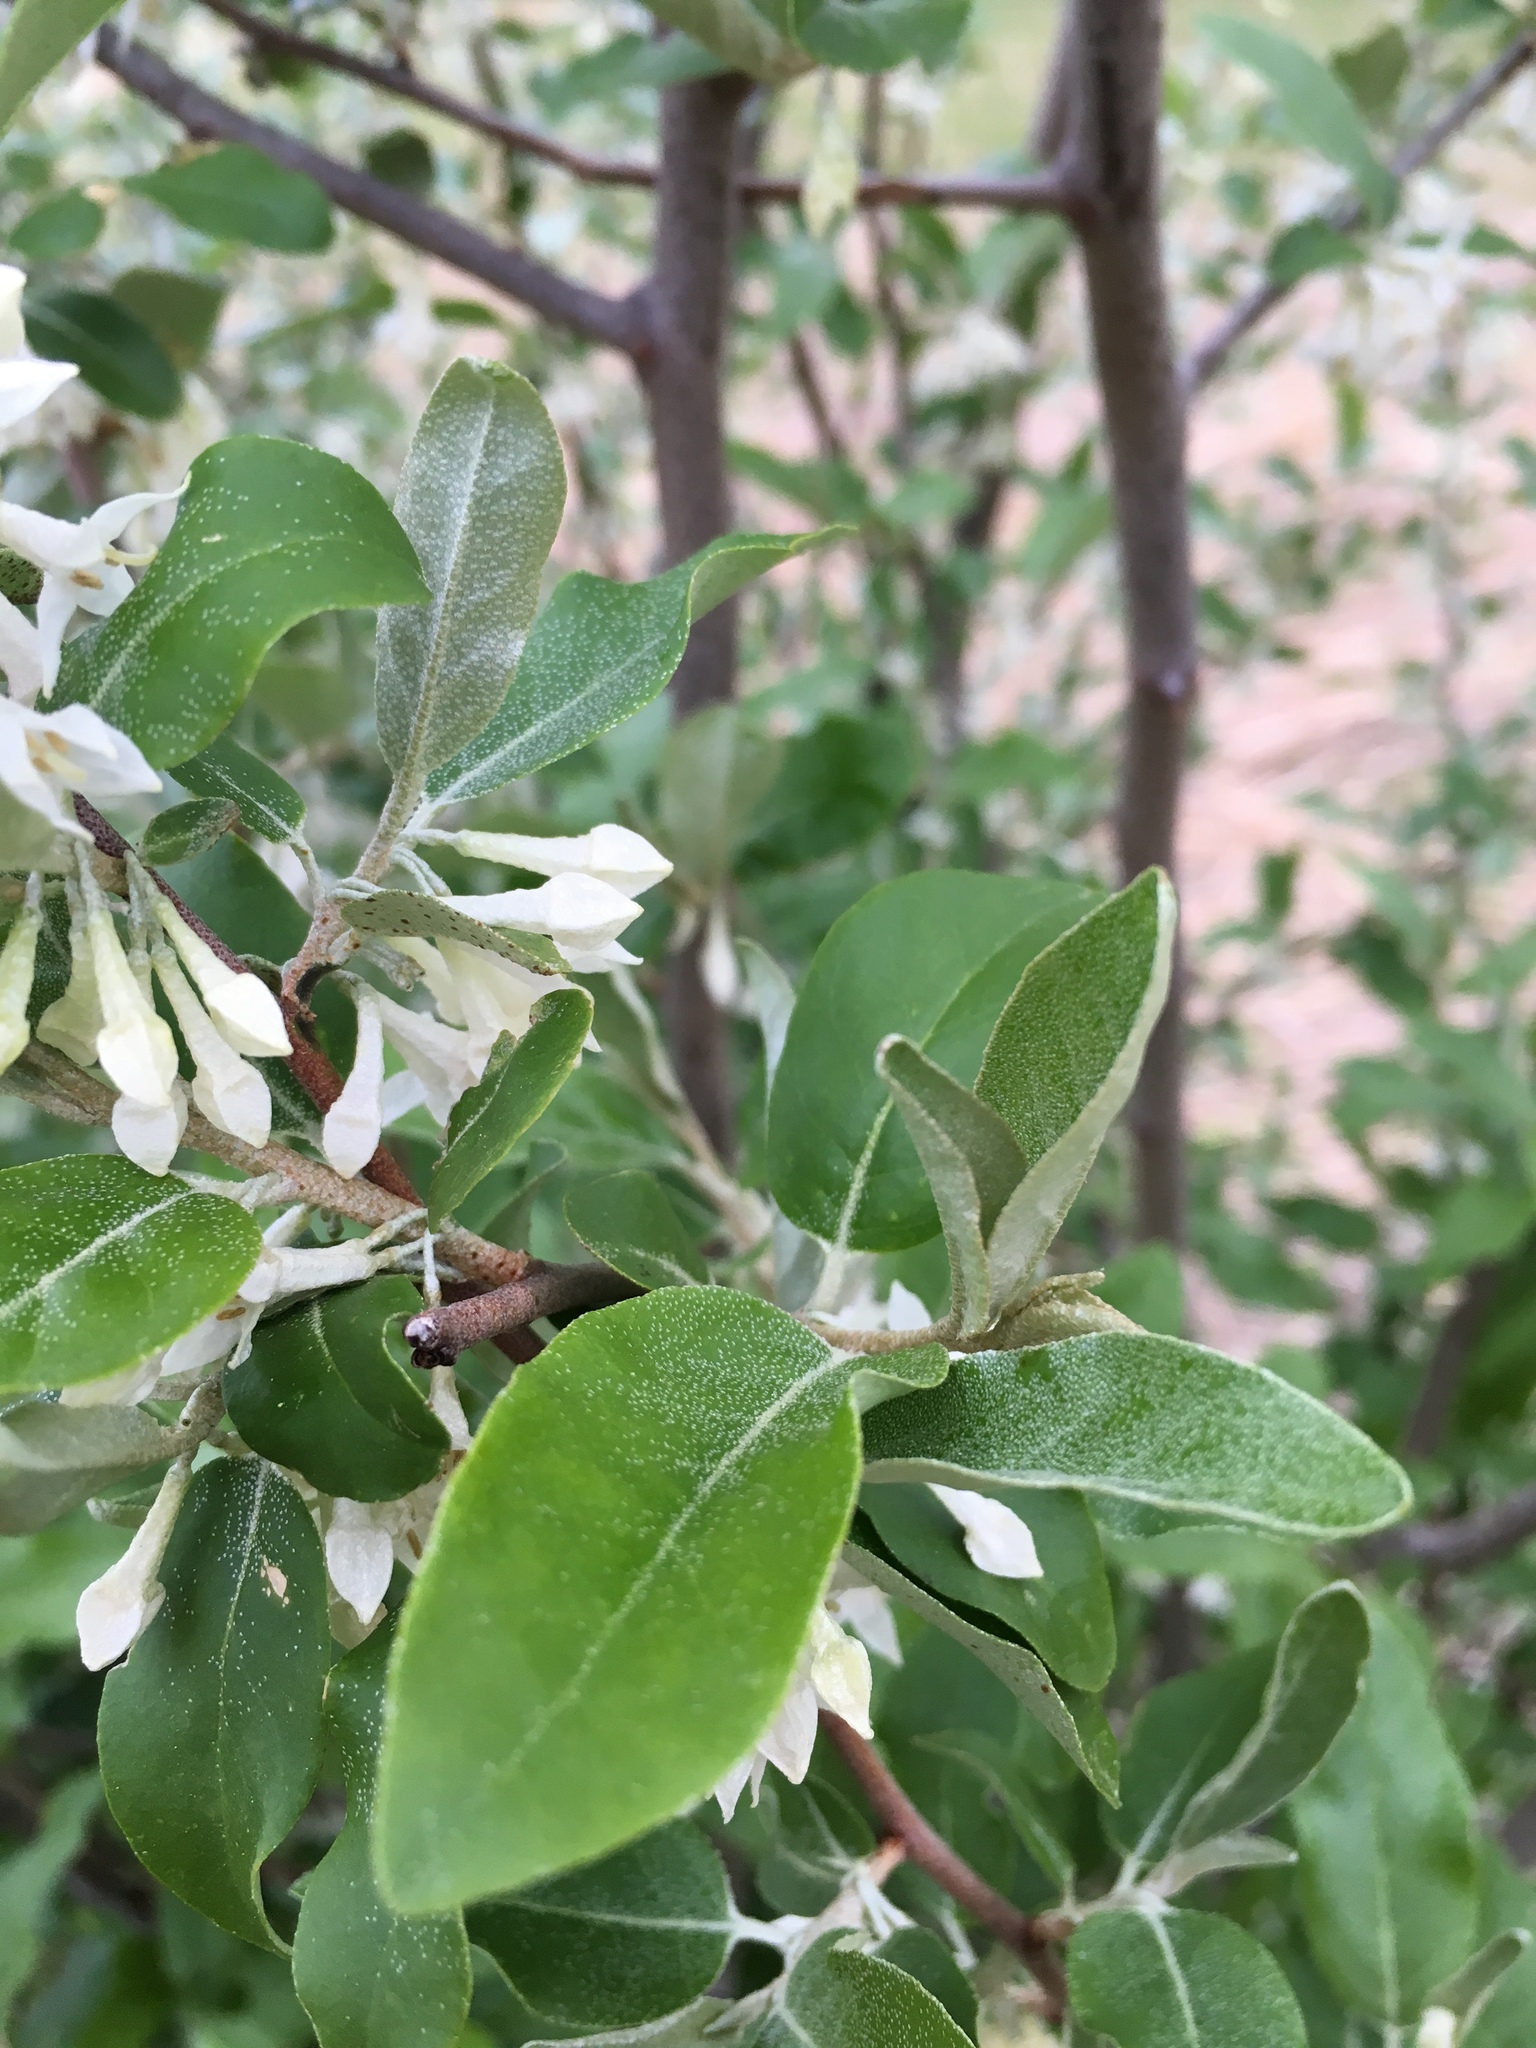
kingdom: Plantae
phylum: Tracheophyta
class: Magnoliopsida
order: Rosales
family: Elaeagnaceae
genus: Elaeagnus
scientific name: Elaeagnus umbellata
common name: Autumn olive
